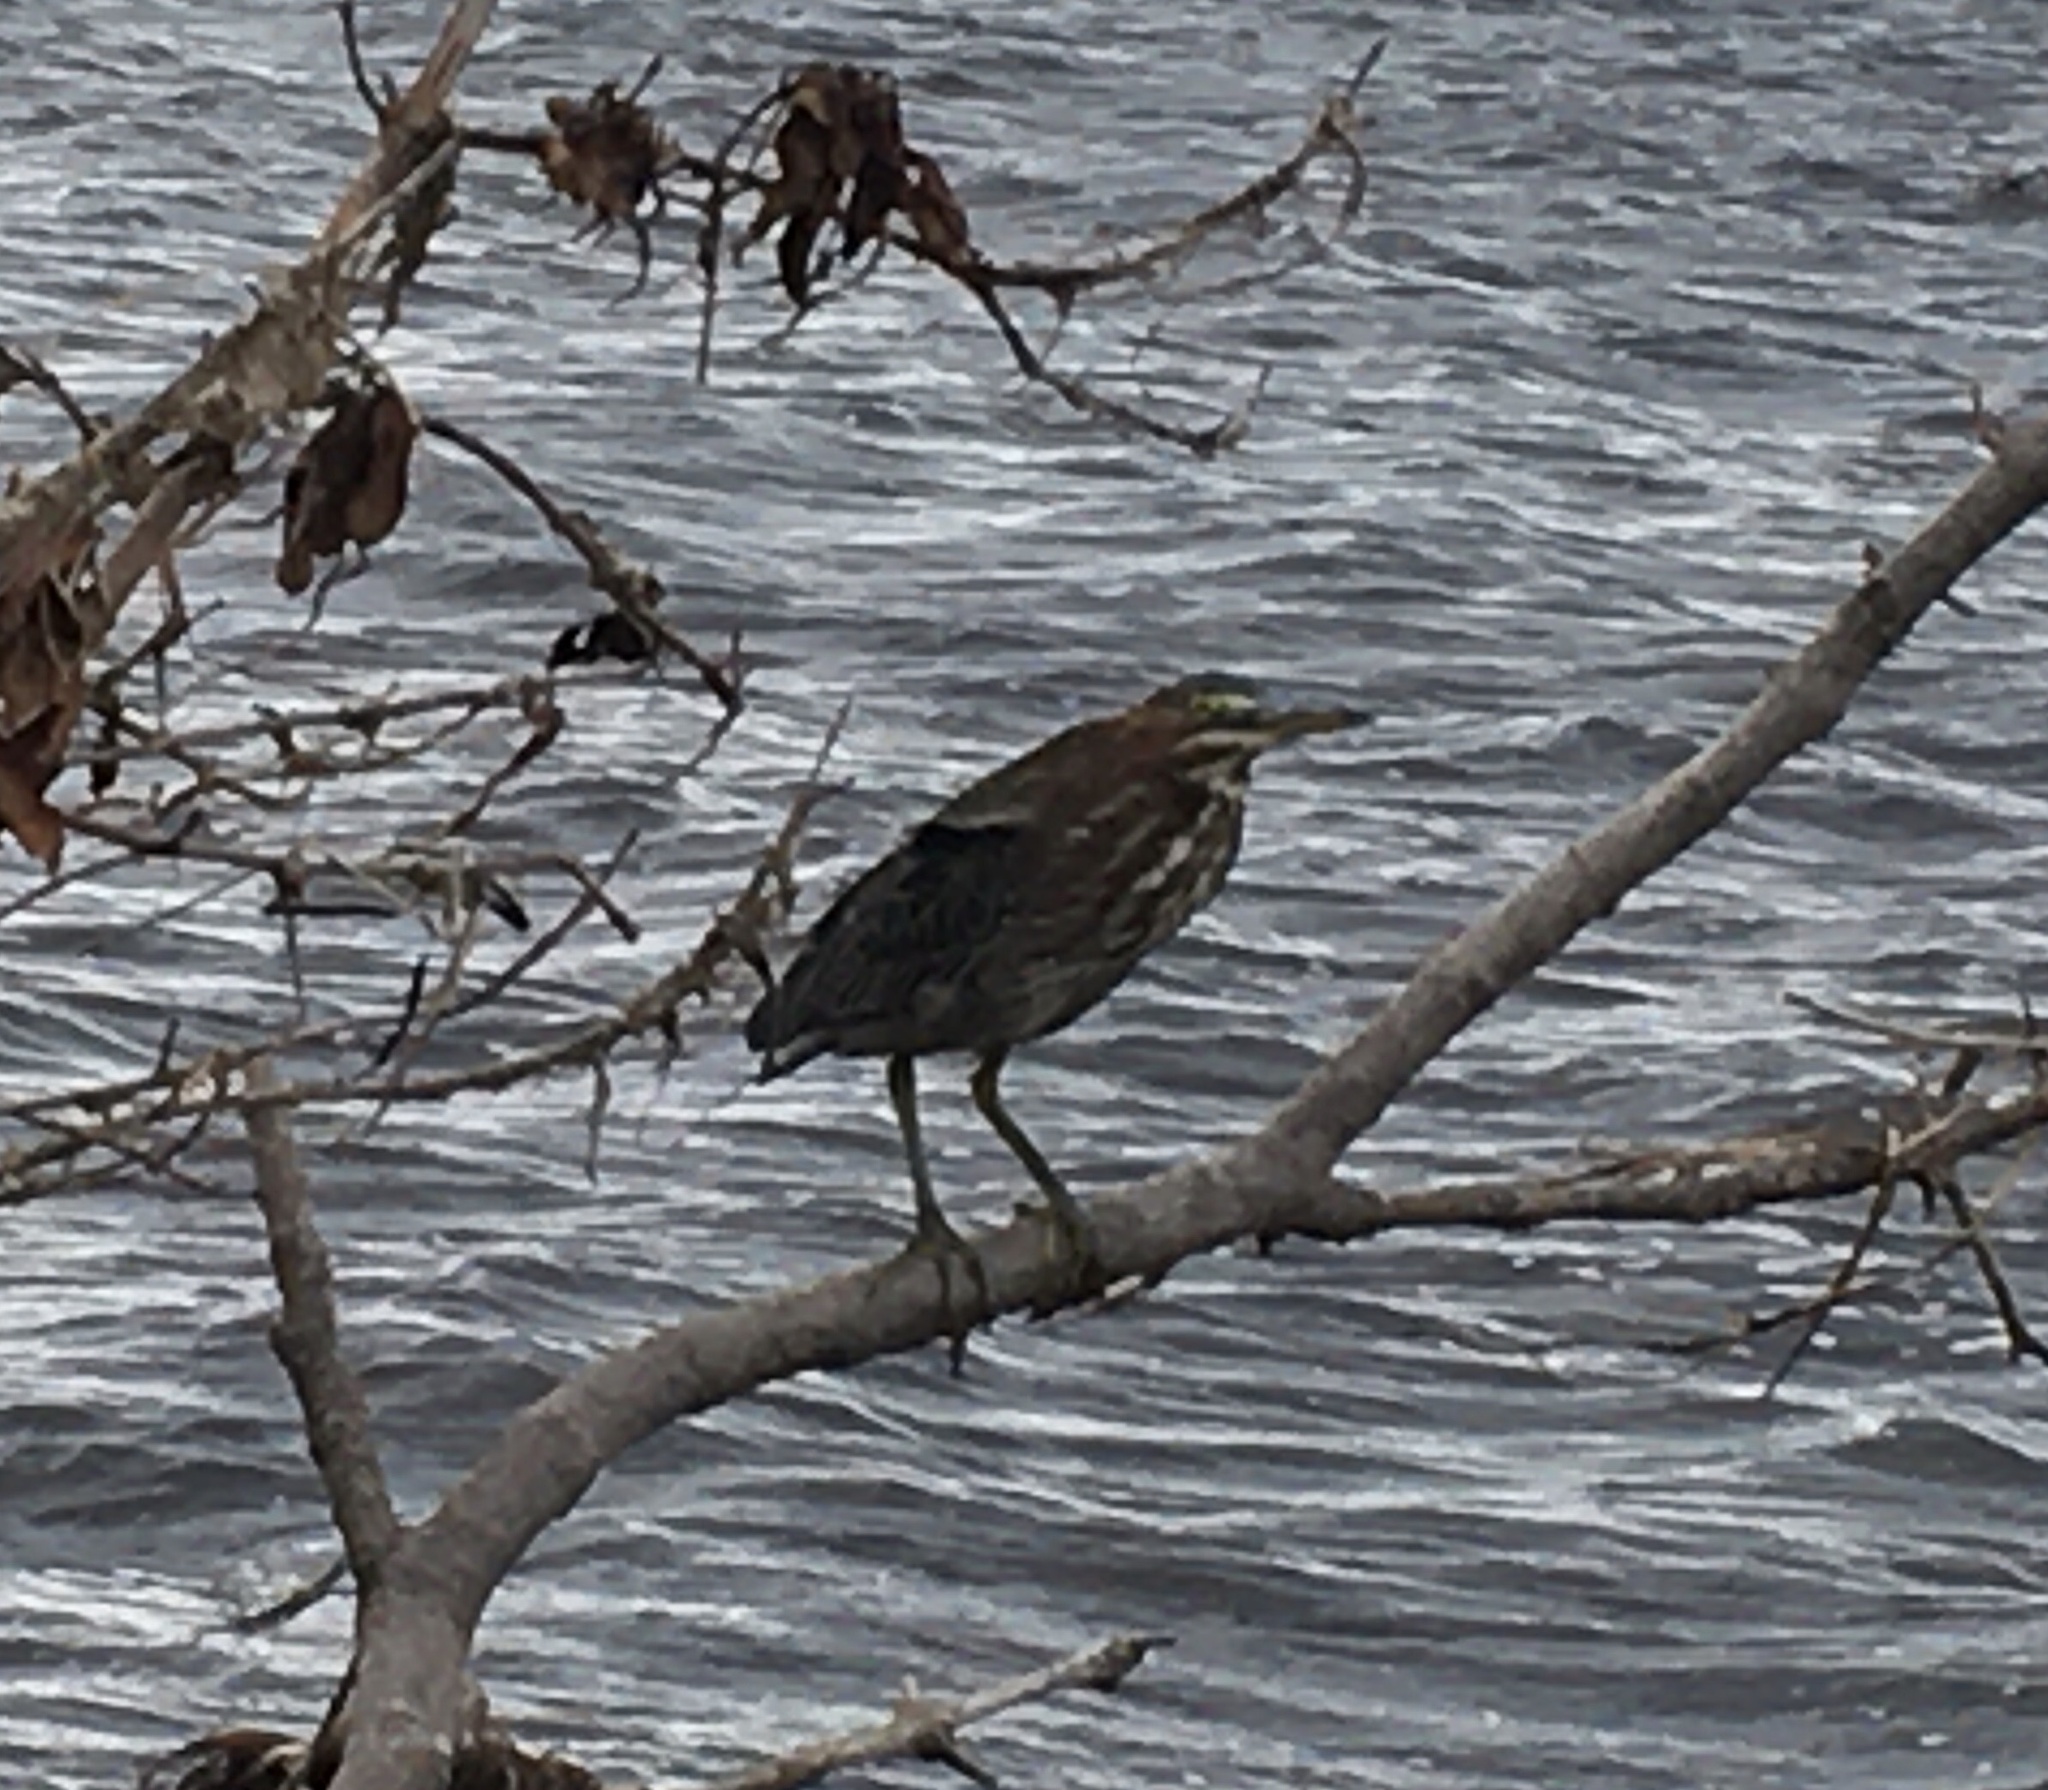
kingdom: Animalia
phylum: Chordata
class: Aves
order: Pelecaniformes
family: Ardeidae
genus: Butorides
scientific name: Butorides virescens
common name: Green heron
